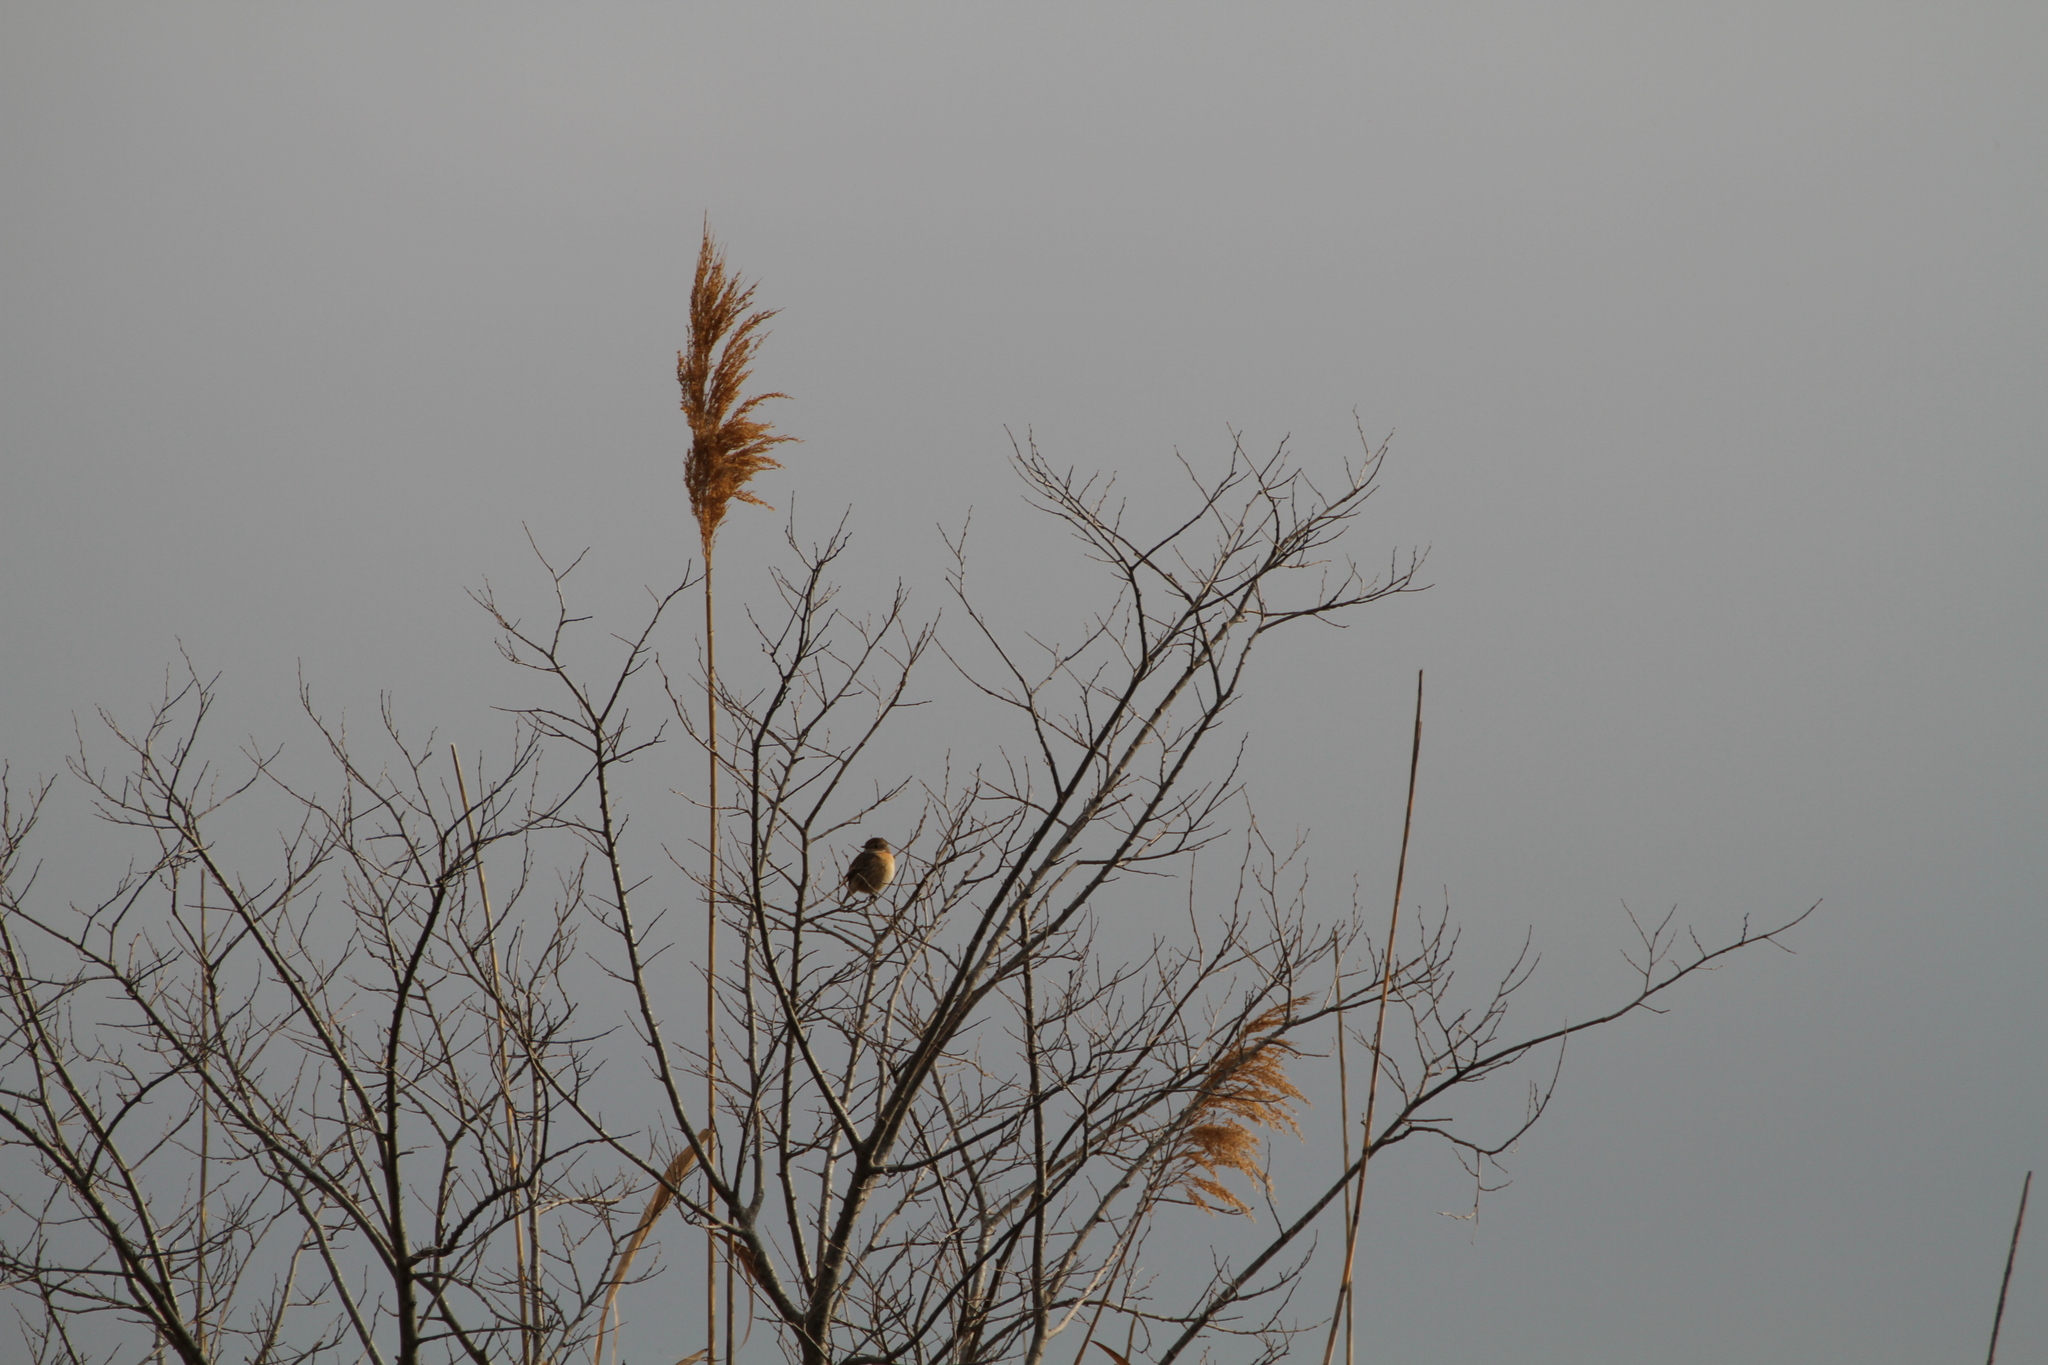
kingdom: Animalia
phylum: Chordata
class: Aves
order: Passeriformes
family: Muscicapidae
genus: Saxicola
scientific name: Saxicola rubicola
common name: European stonechat
